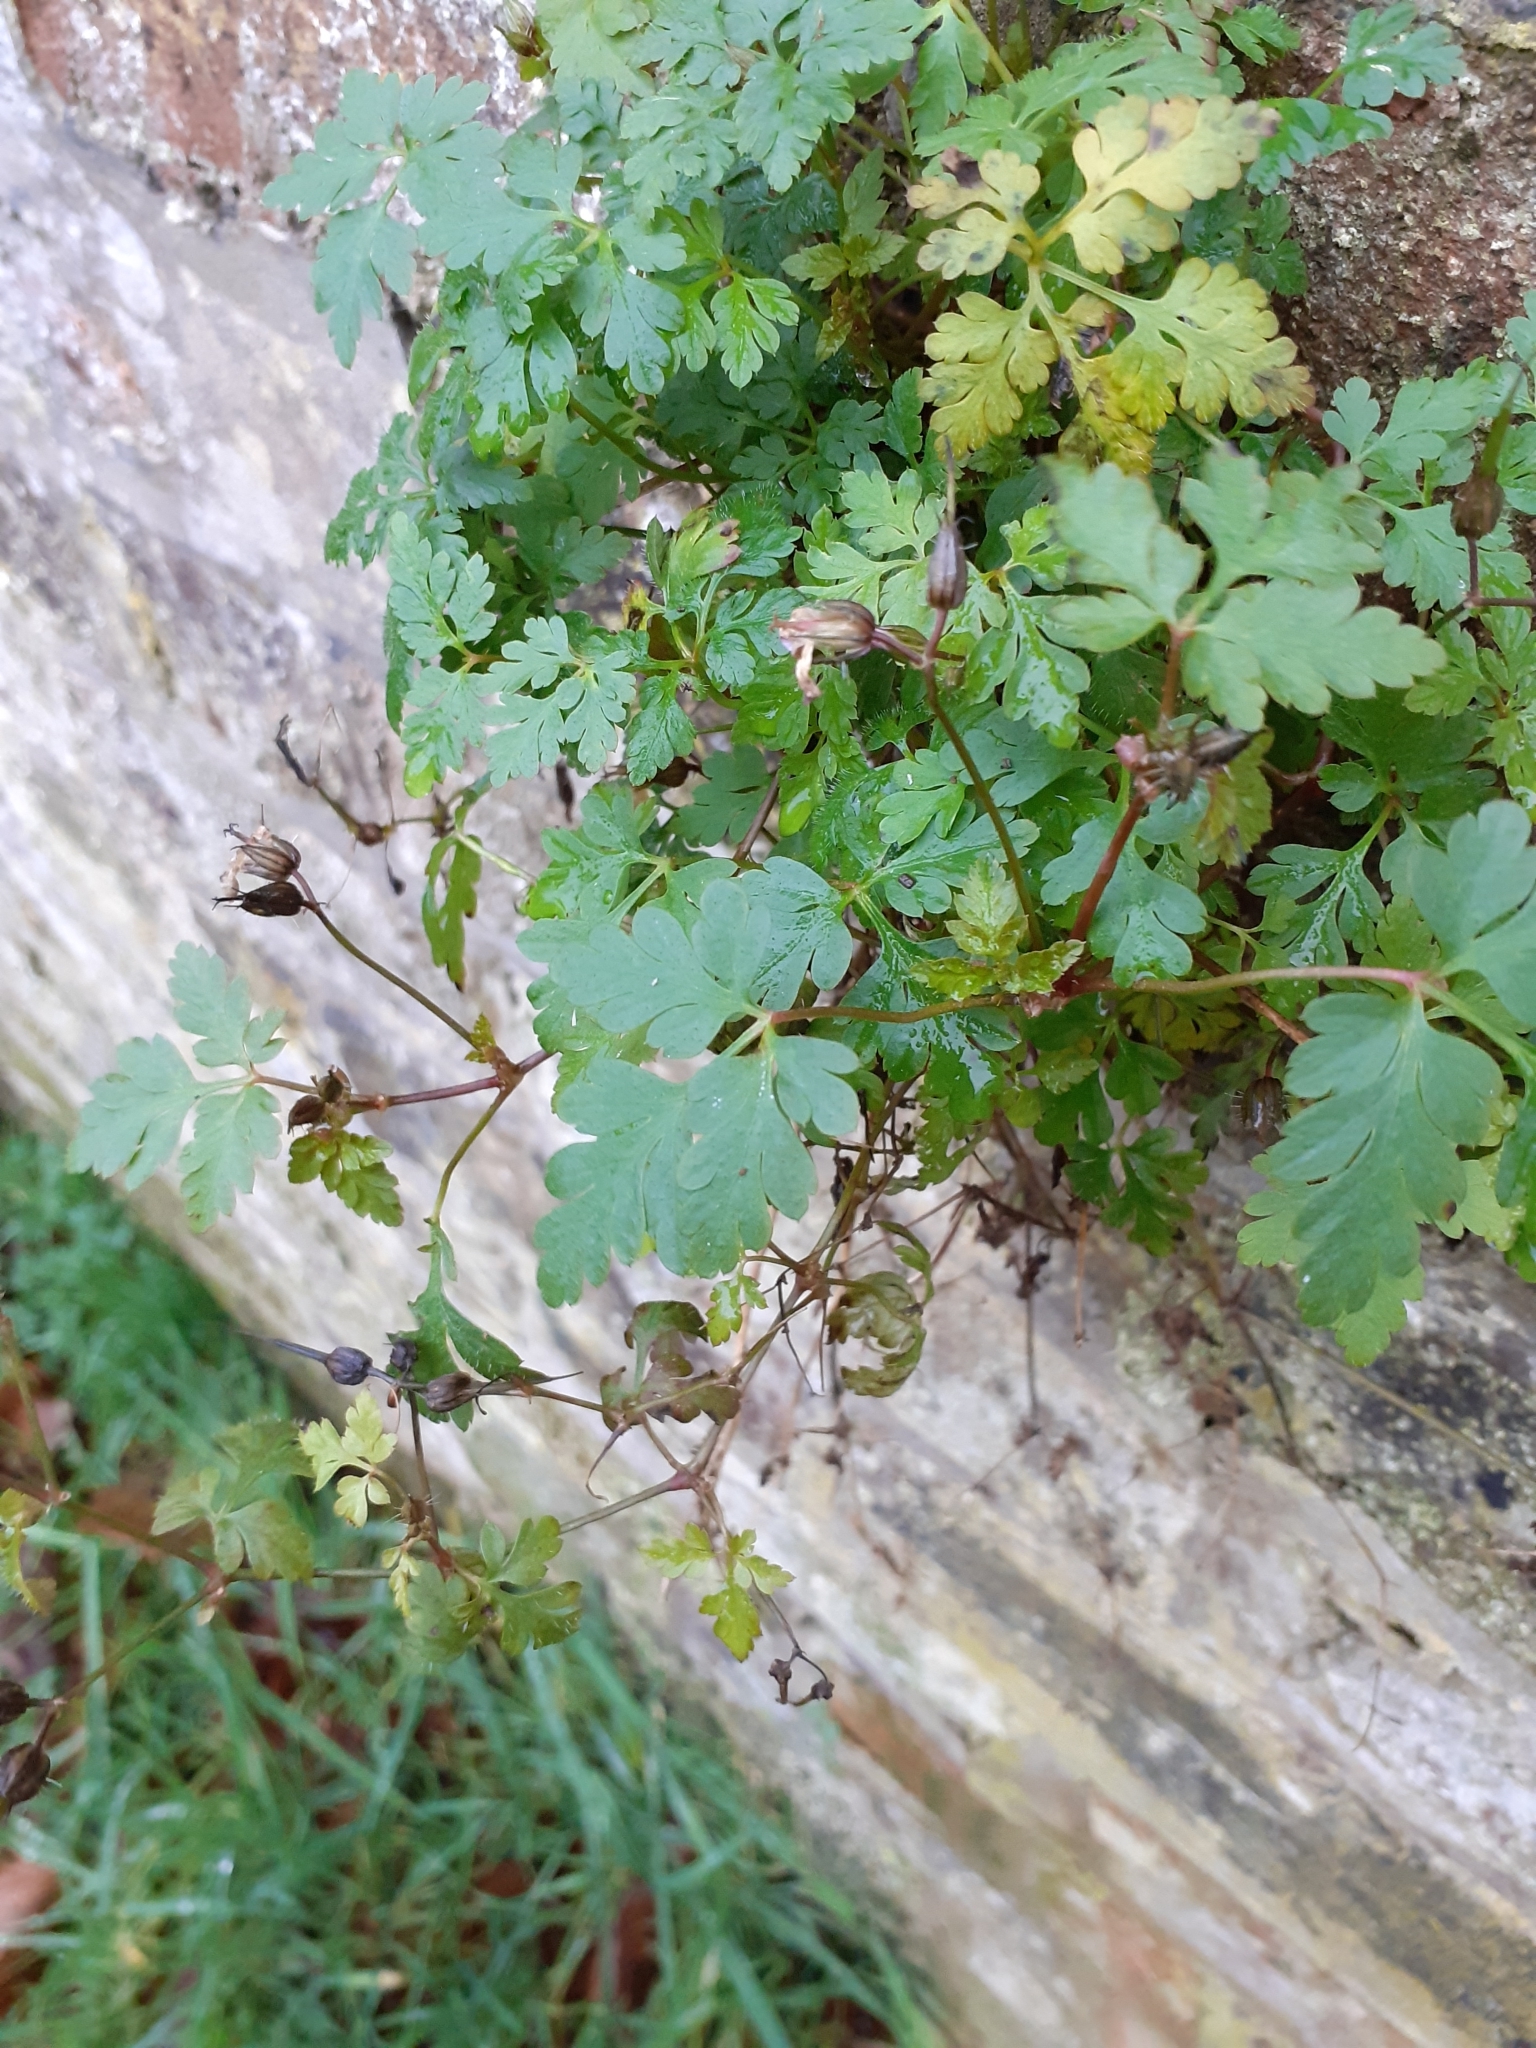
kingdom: Plantae
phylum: Tracheophyta
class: Magnoliopsida
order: Geraniales
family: Geraniaceae
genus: Geranium
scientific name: Geranium robertianum
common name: Herb-robert
